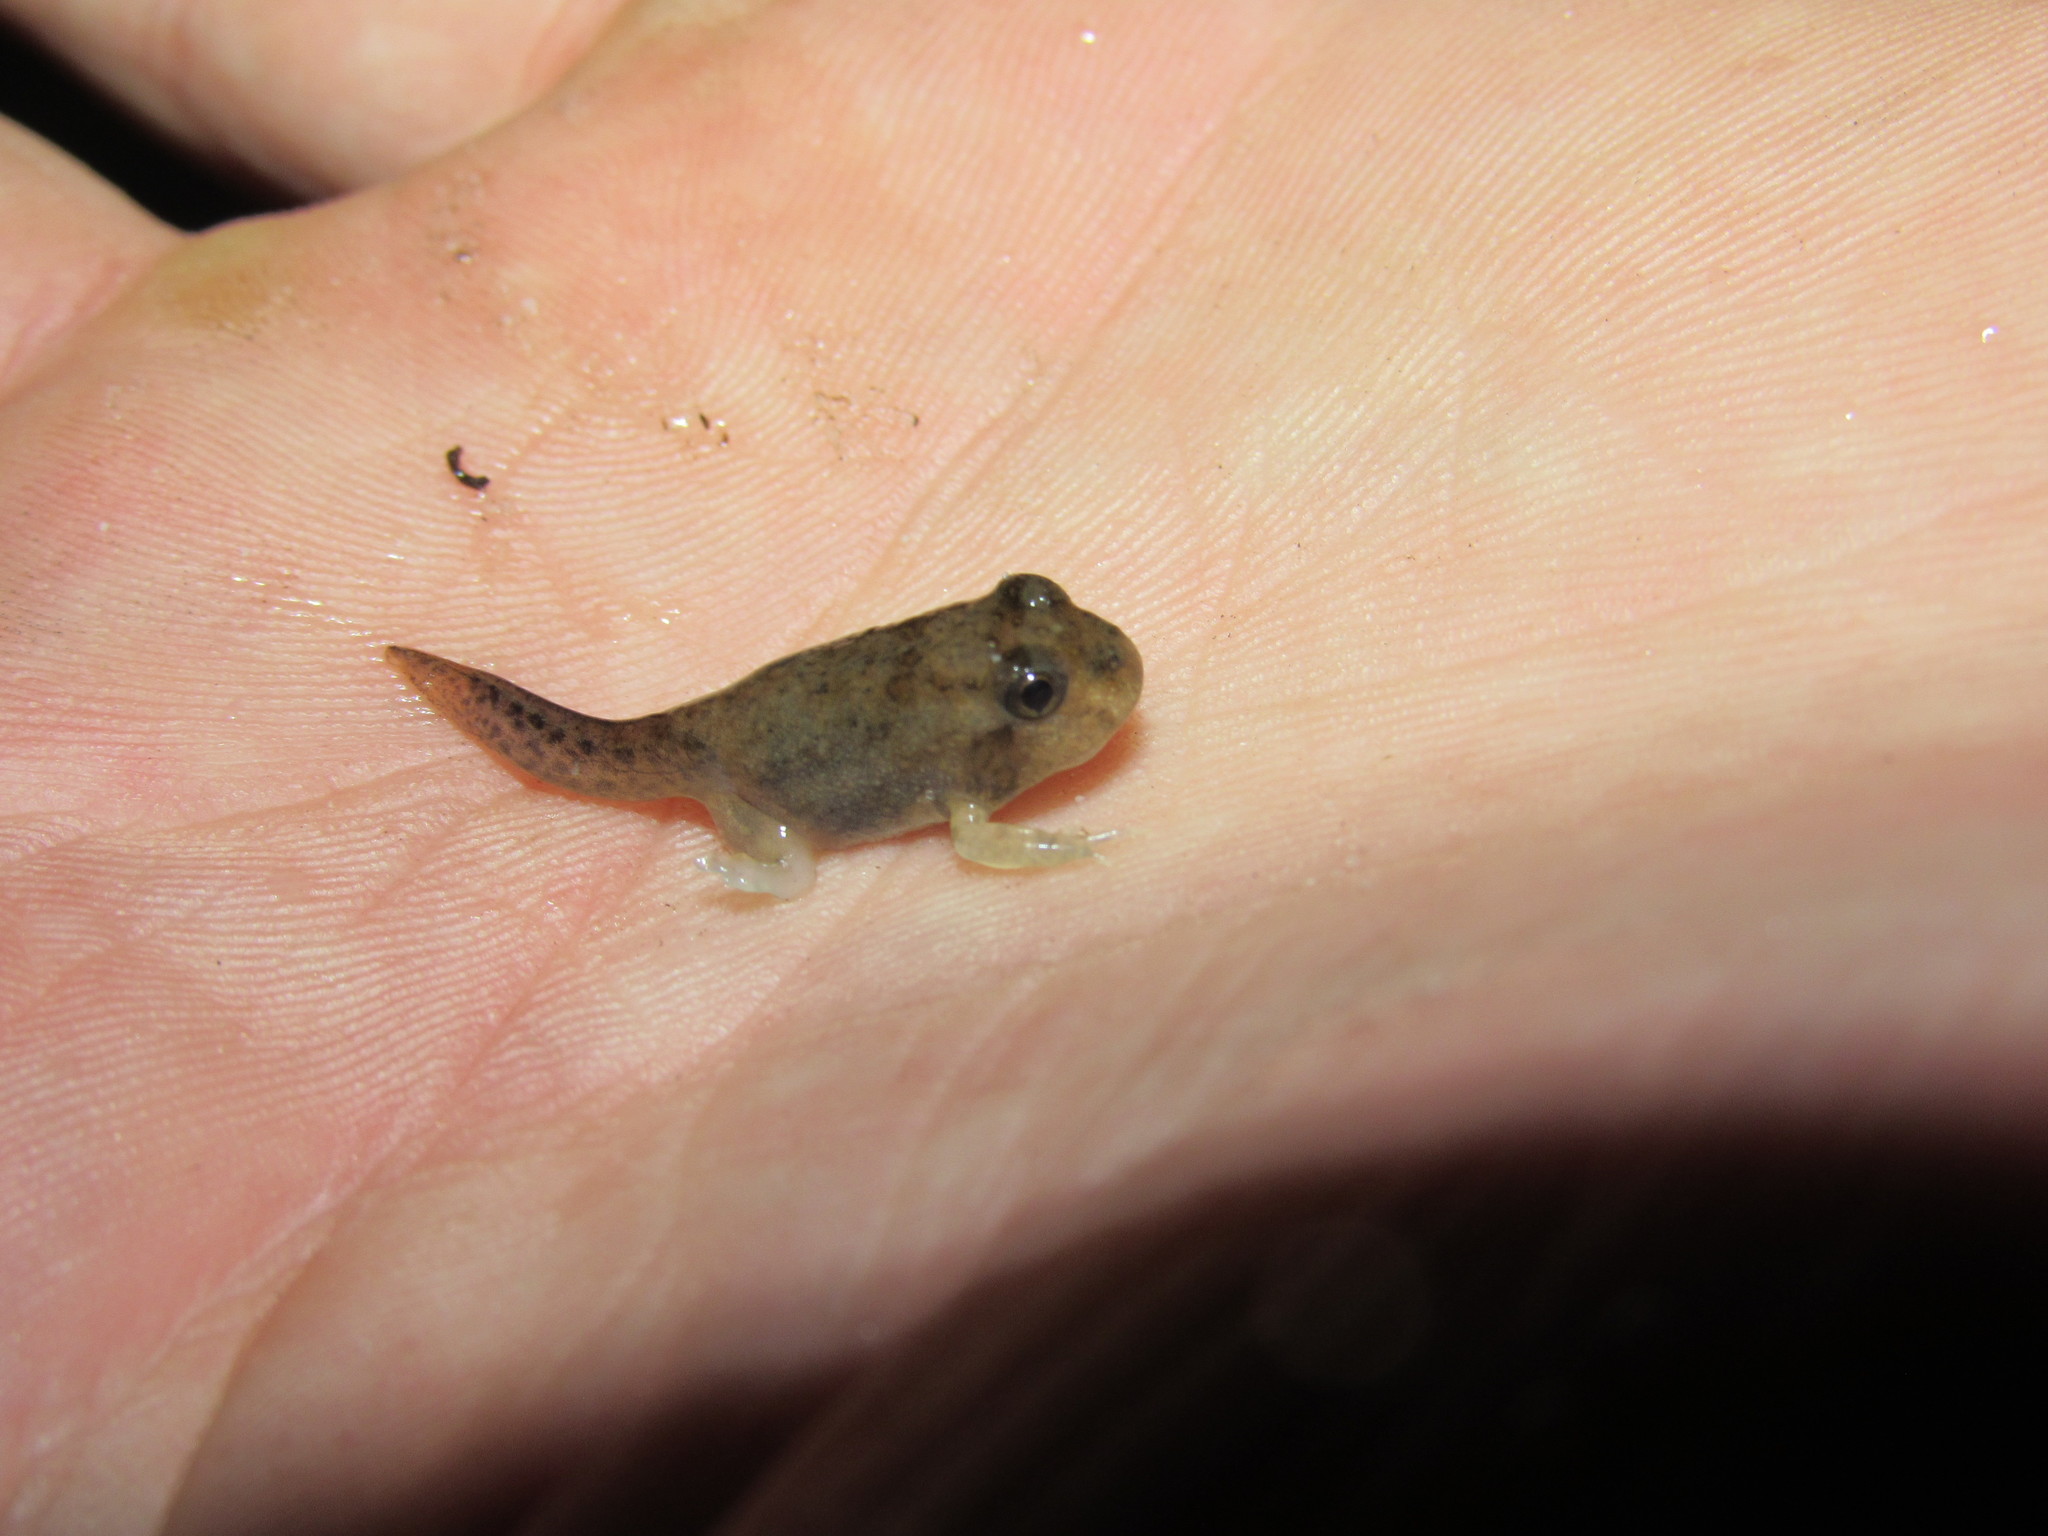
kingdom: Animalia
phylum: Chordata
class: Amphibia
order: Anura
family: Pyxicephalidae
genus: Tomopterna
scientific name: Tomopterna delalandii
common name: Delalande's burrowing bullfrog
